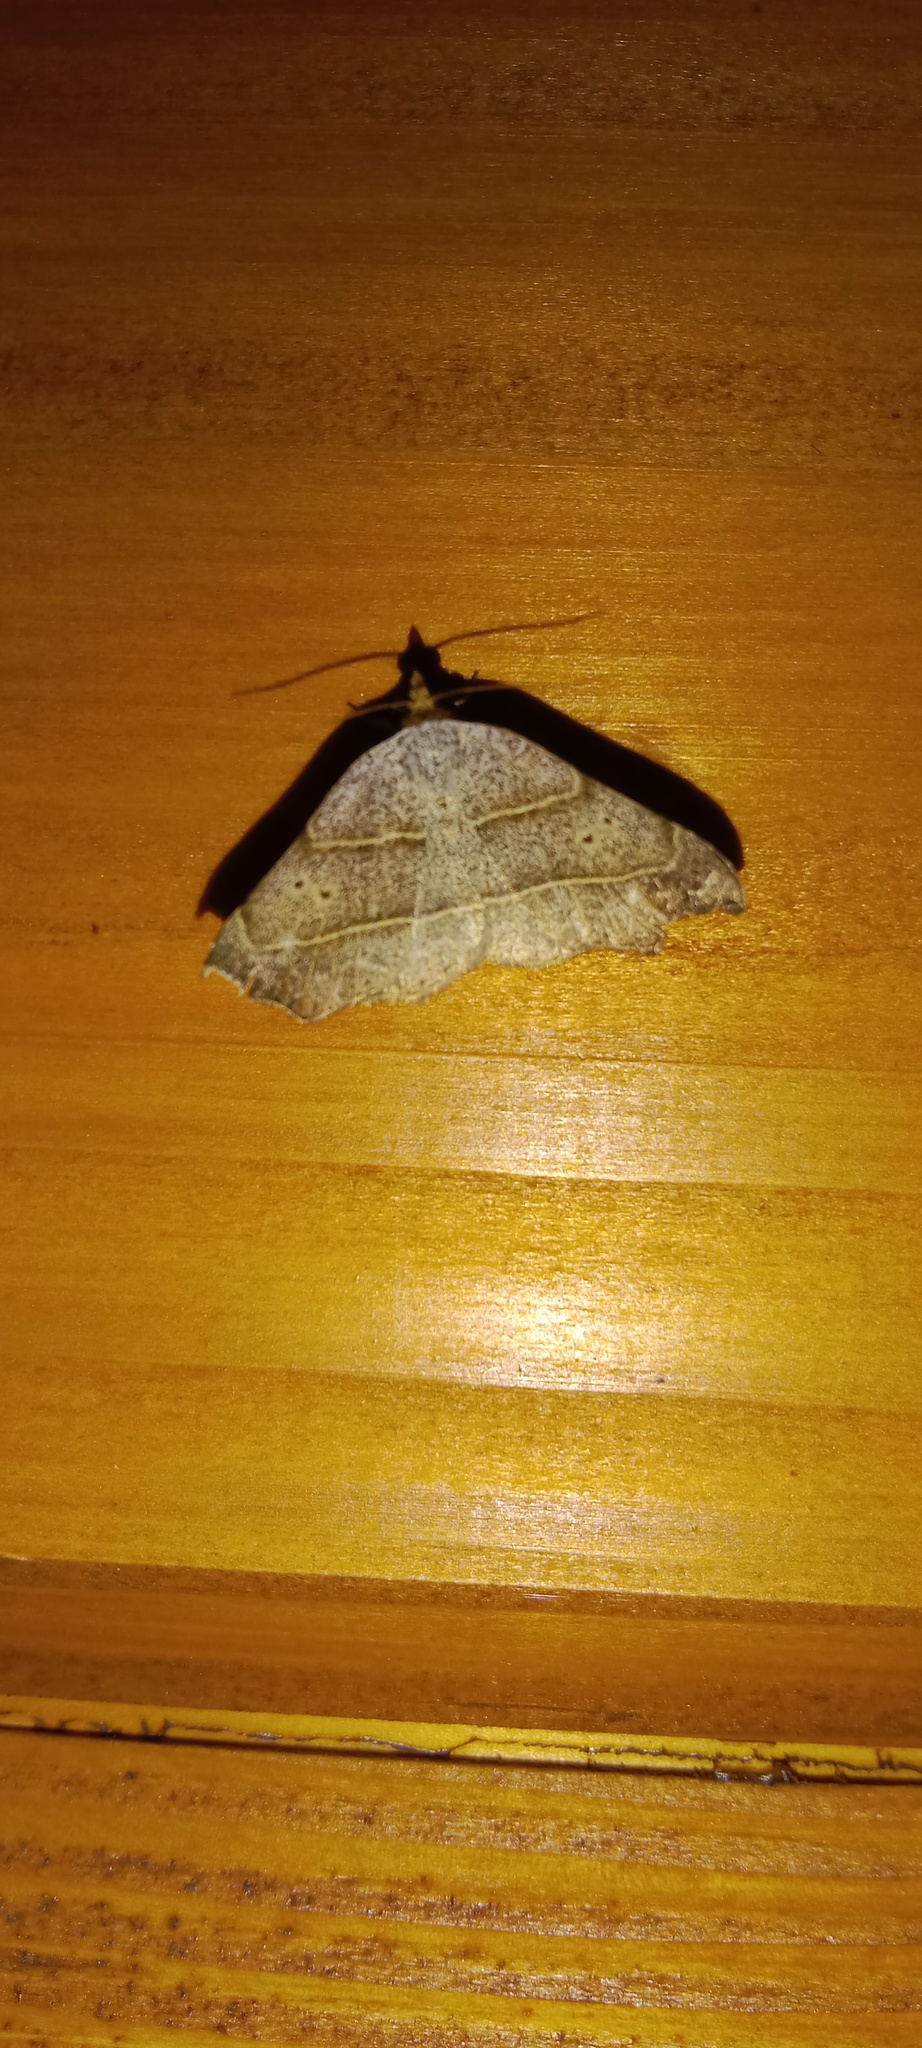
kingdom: Animalia
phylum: Arthropoda
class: Insecta
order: Lepidoptera
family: Erebidae
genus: Laspeyria
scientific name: Laspeyria flexula
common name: Beautiful hook-tip
